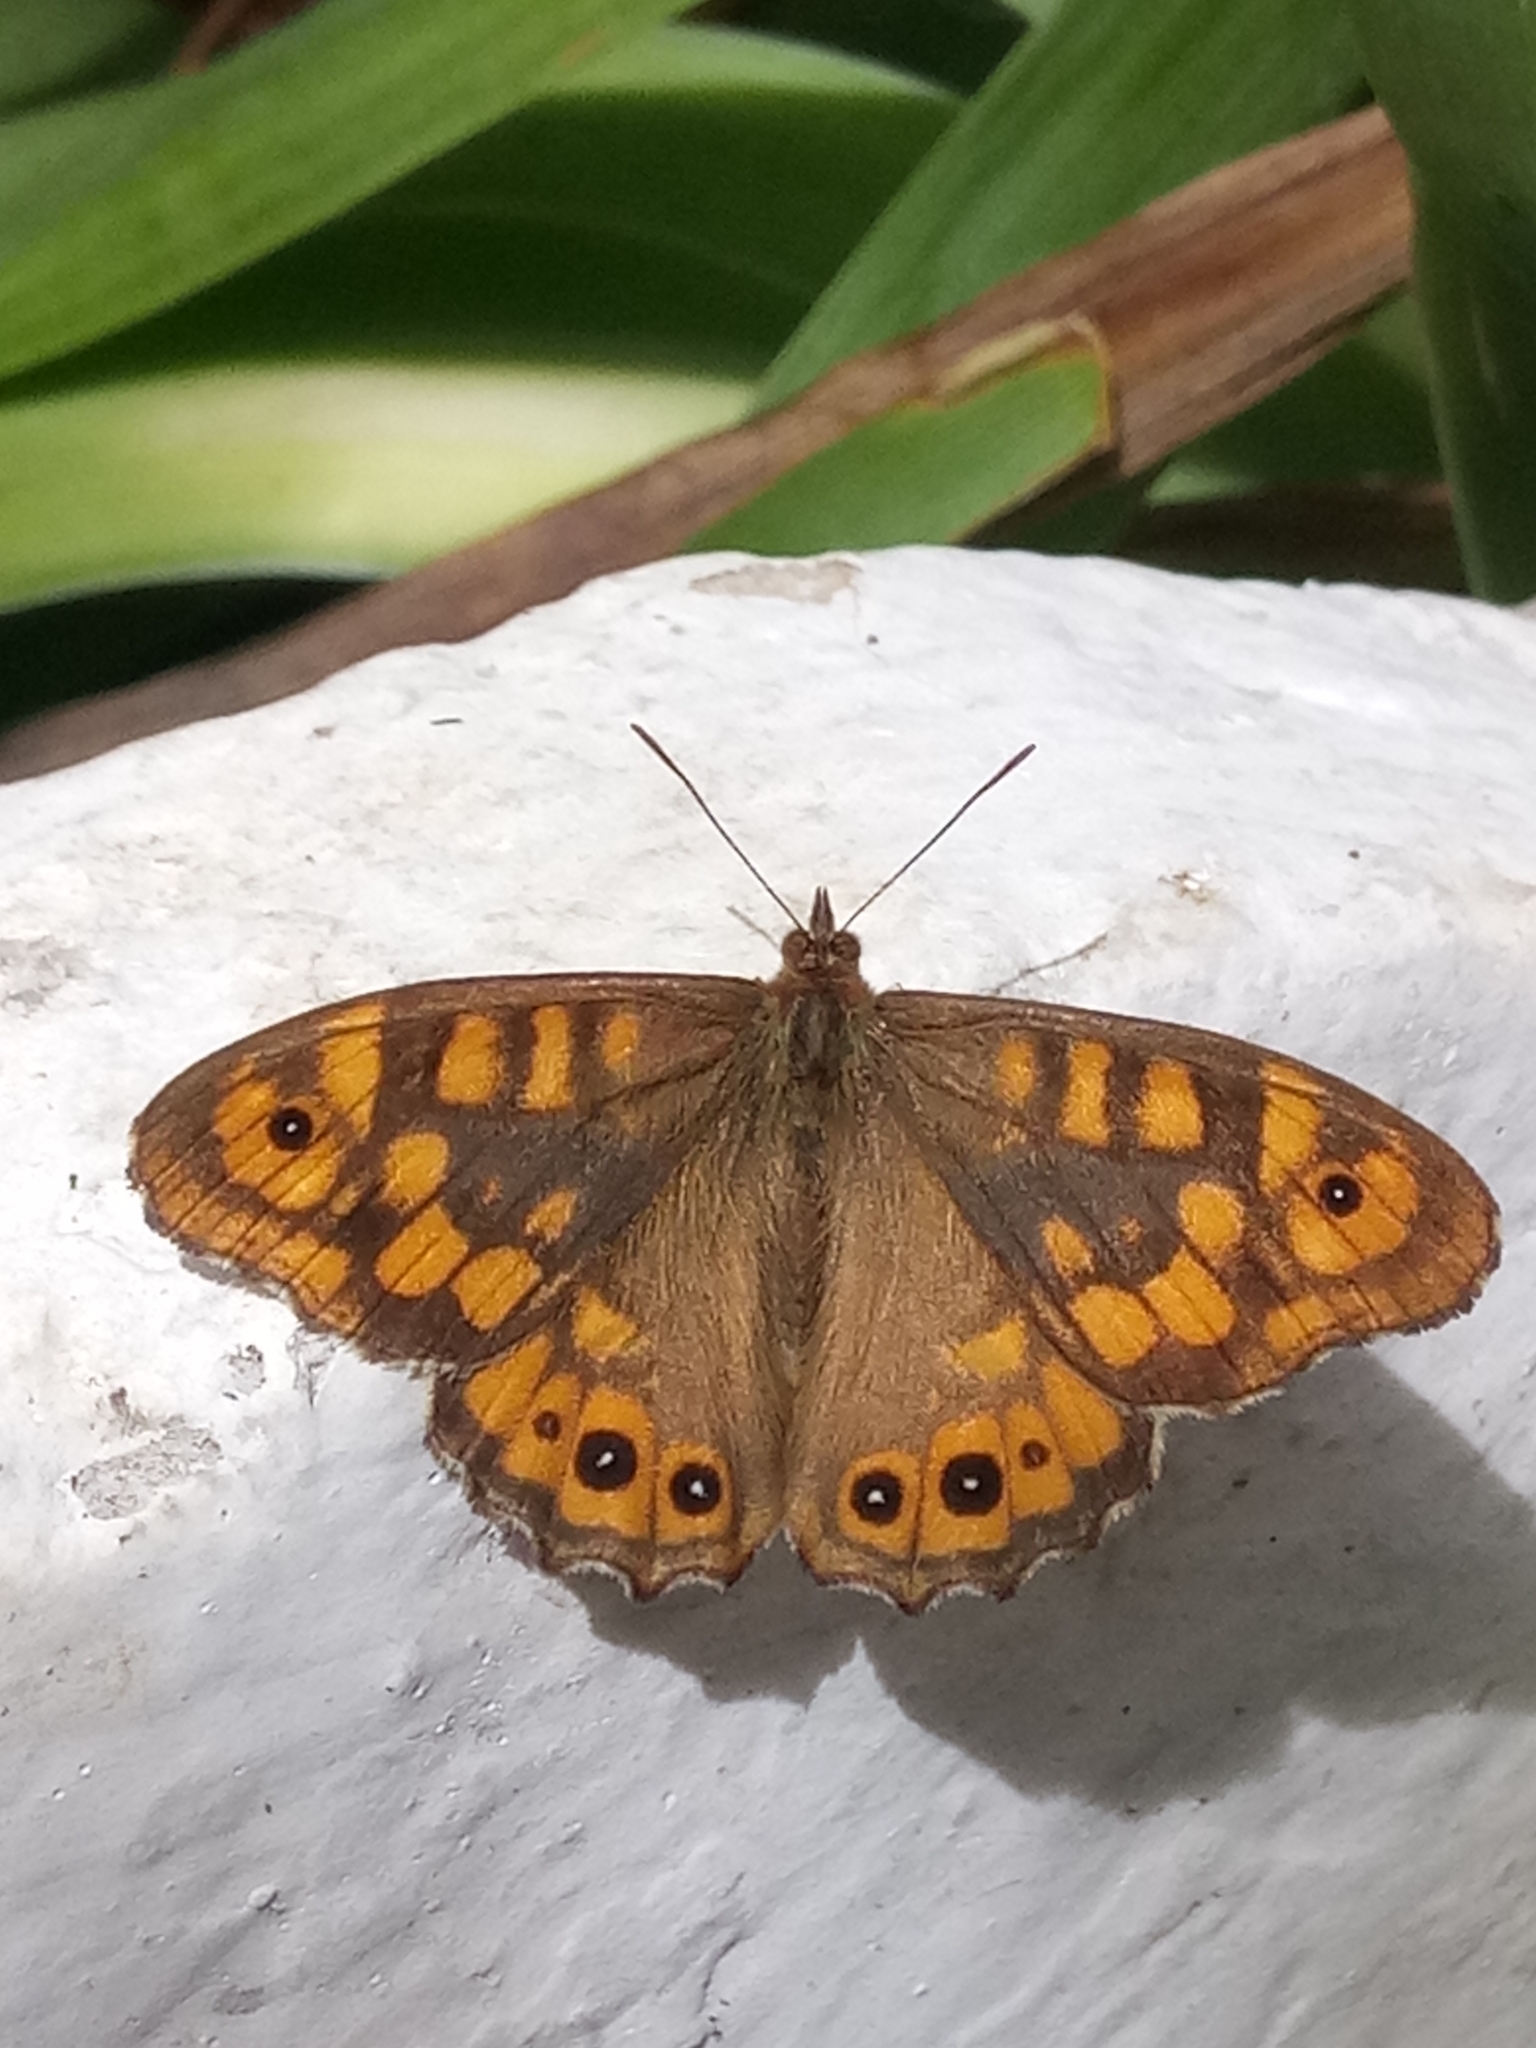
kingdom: Animalia
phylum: Arthropoda
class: Insecta
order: Lepidoptera
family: Nymphalidae
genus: Pararge
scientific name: Pararge aegeria
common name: Speckled wood
